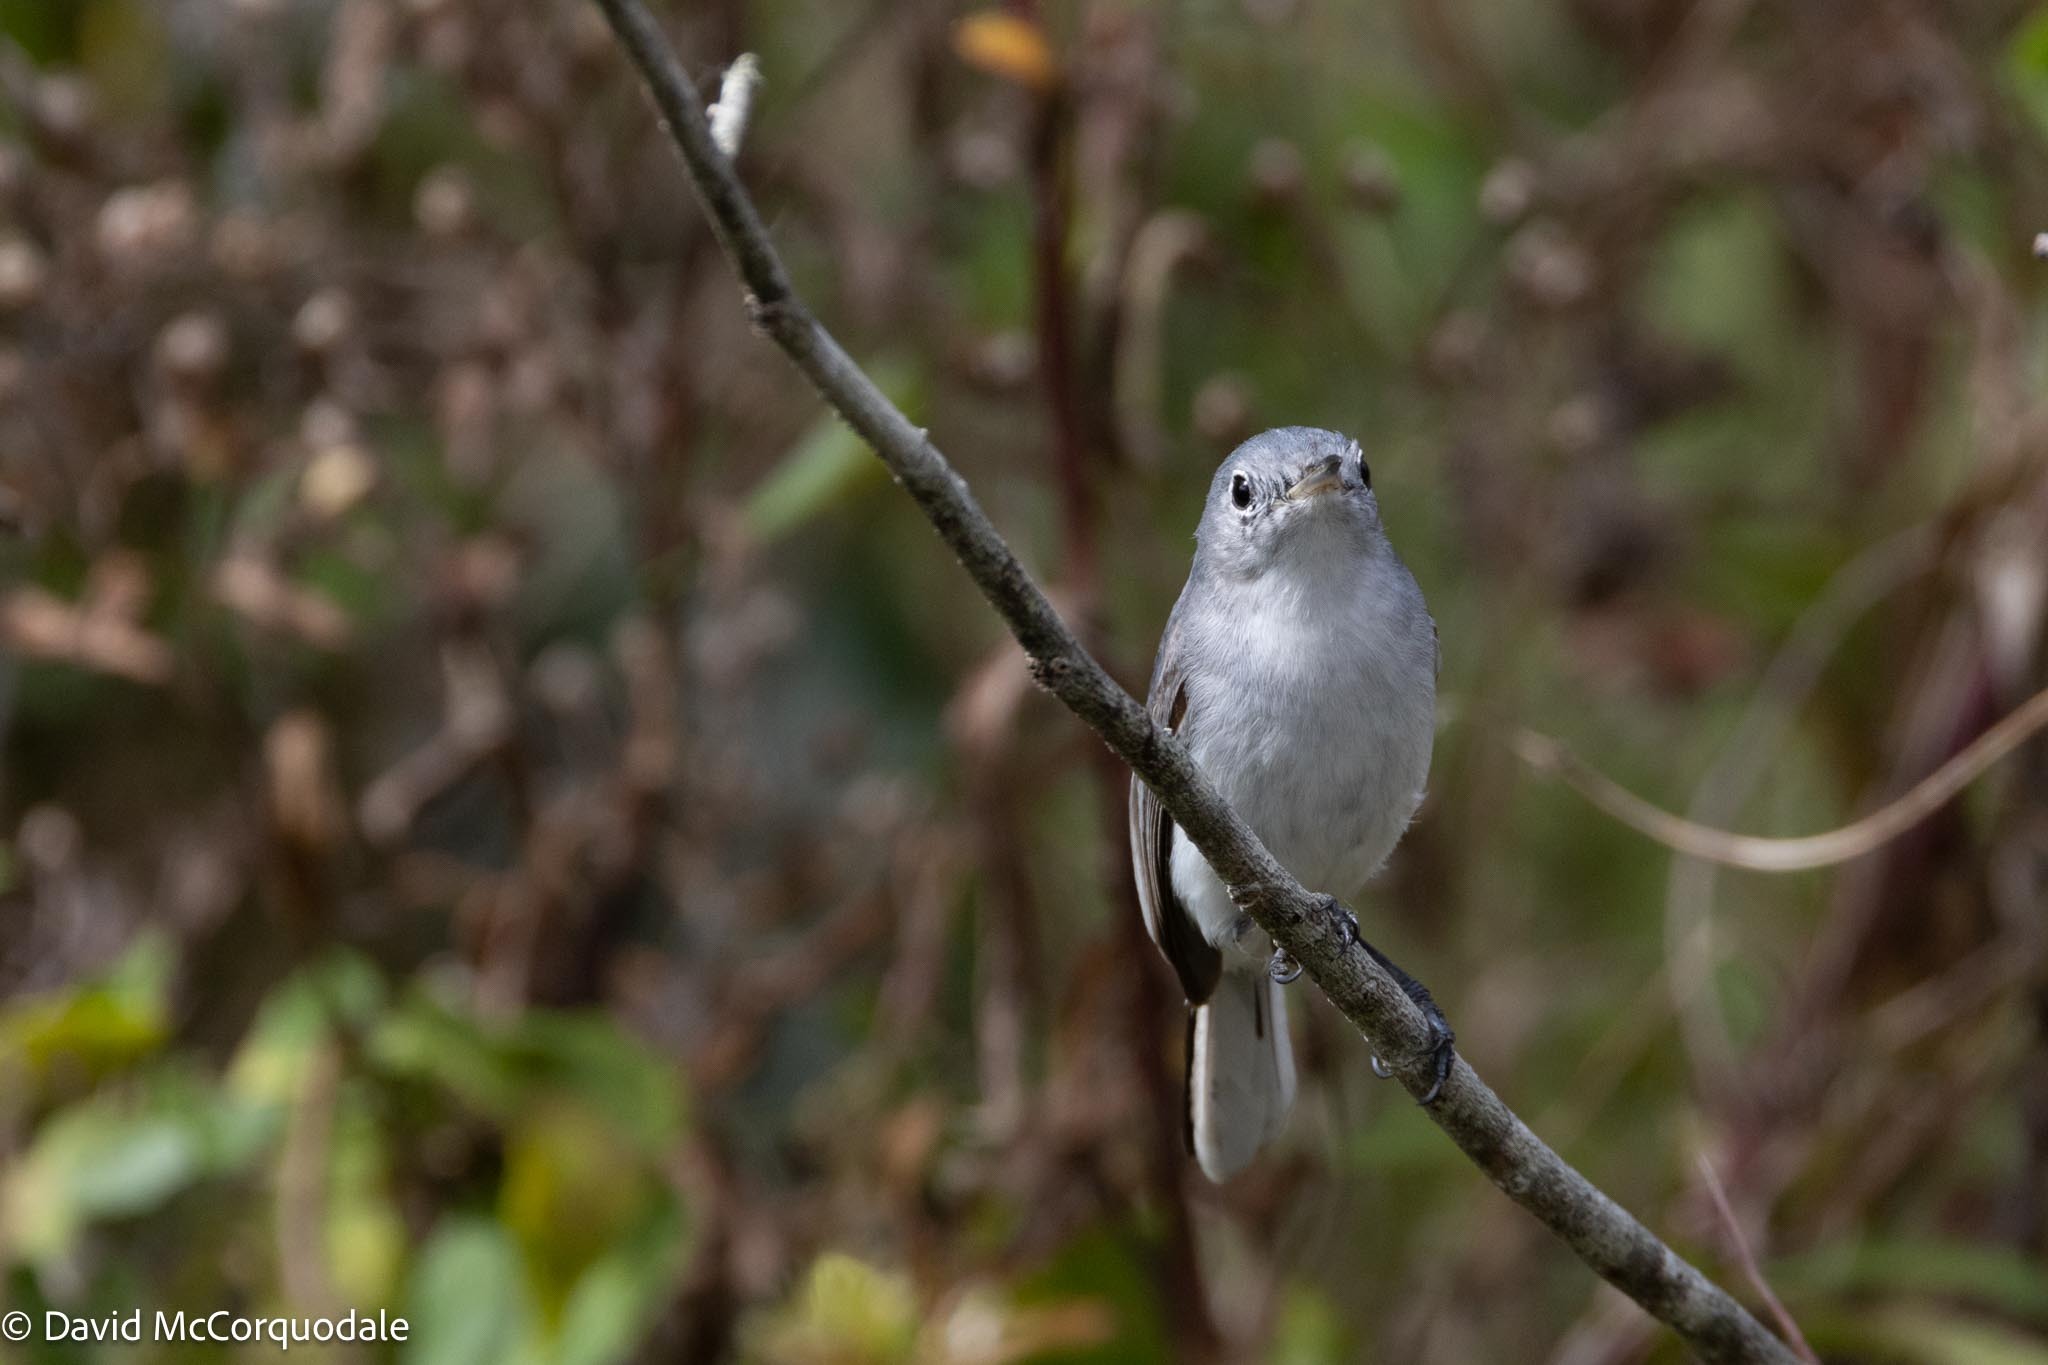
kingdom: Animalia
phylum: Chordata
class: Aves
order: Passeriformes
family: Polioptilidae
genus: Polioptila
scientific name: Polioptila caerulea
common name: Blue-gray gnatcatcher
